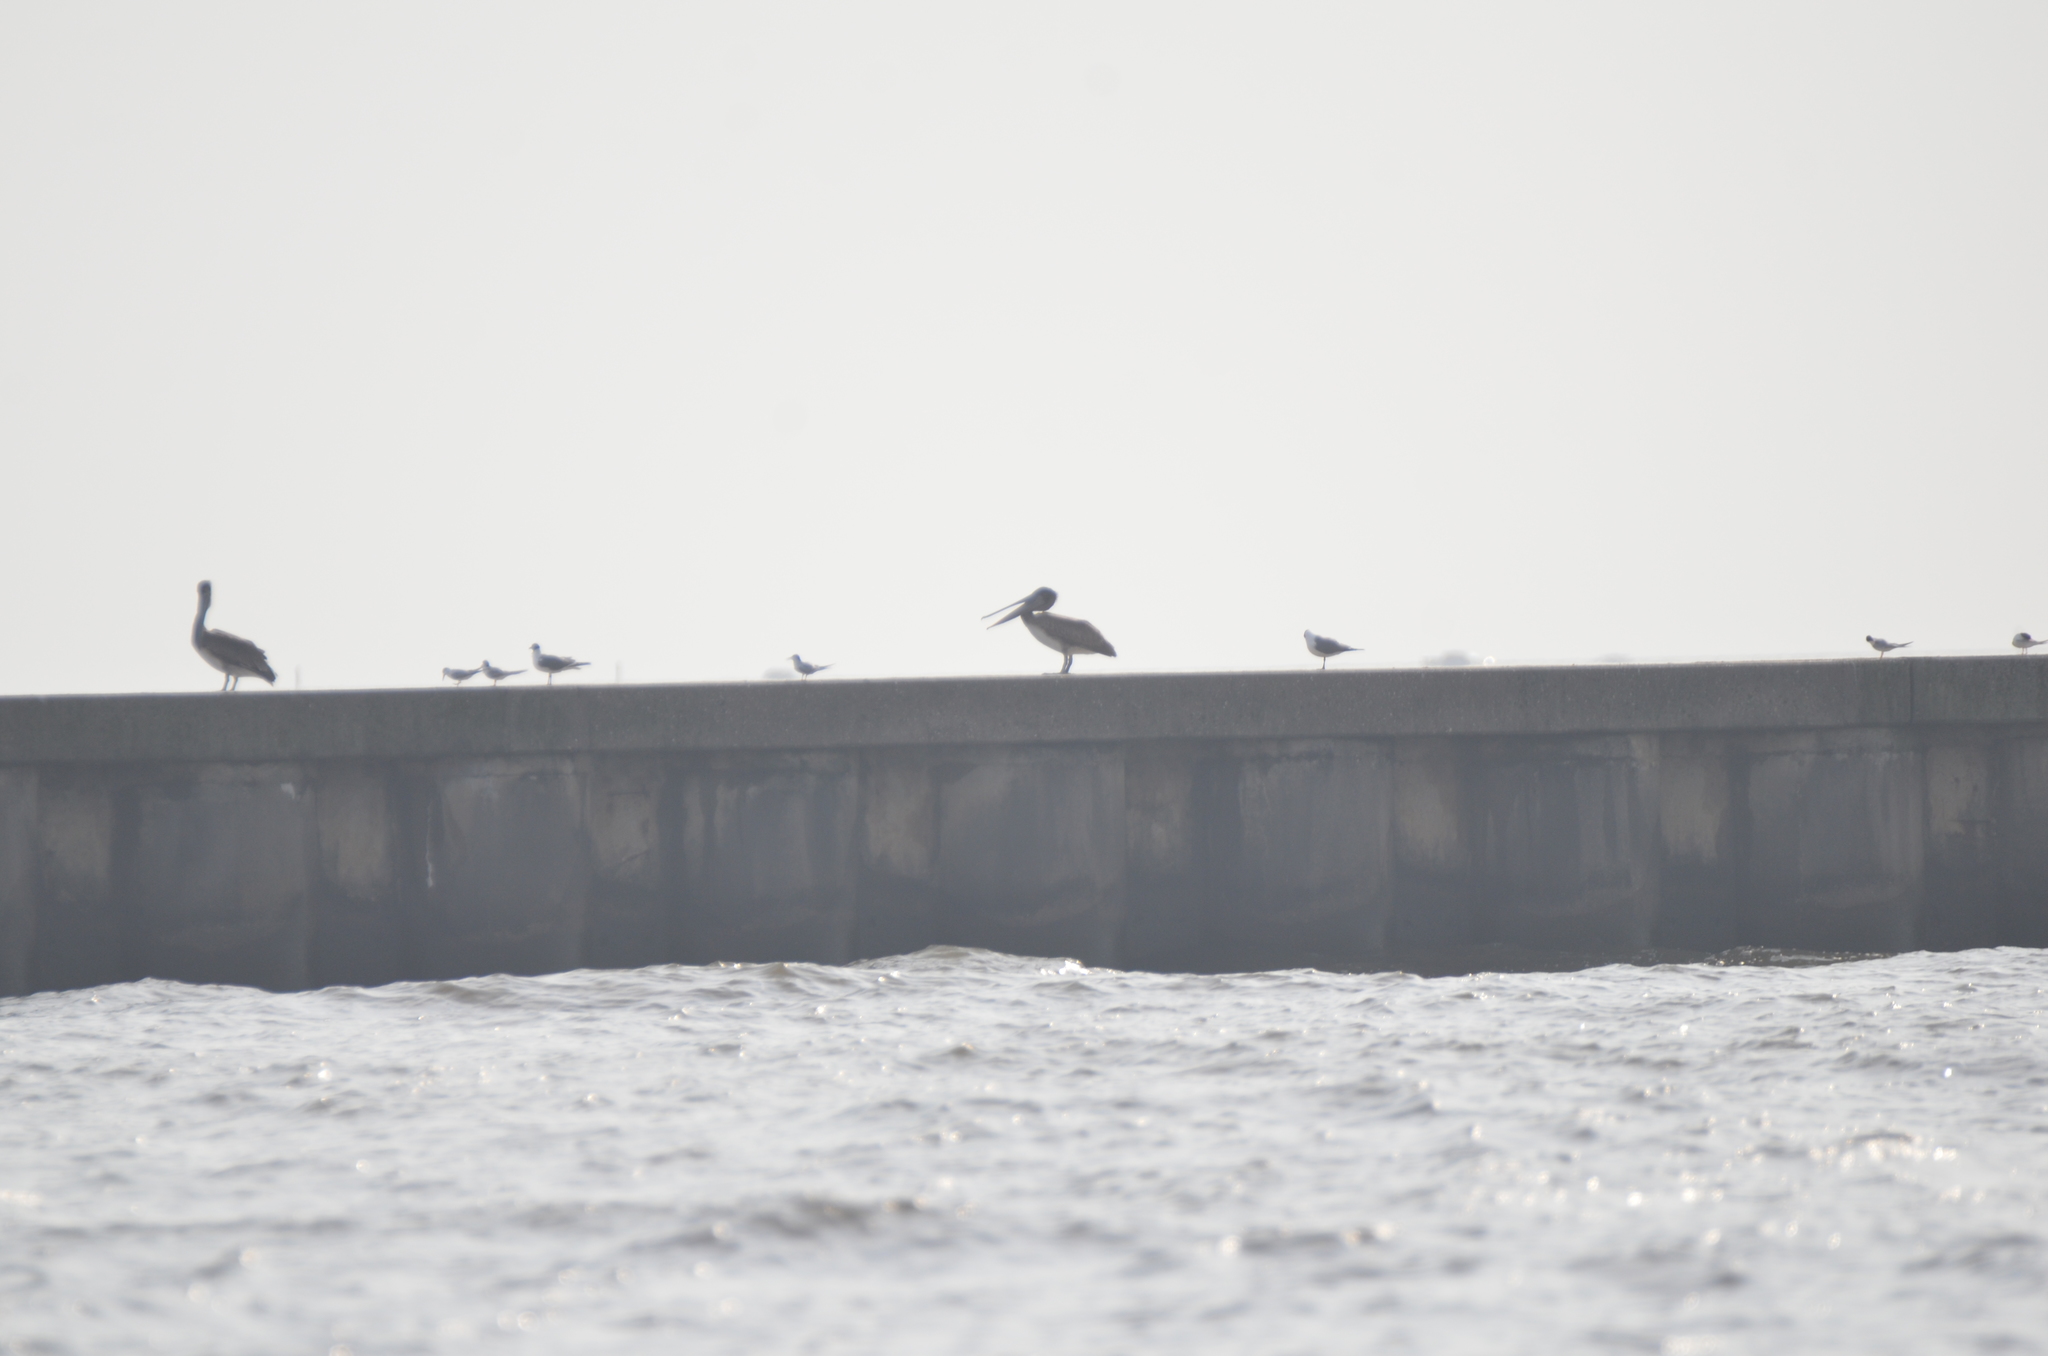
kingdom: Animalia
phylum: Chordata
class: Aves
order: Pelecaniformes
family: Pelecanidae
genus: Pelecanus
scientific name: Pelecanus occidentalis
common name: Brown pelican
